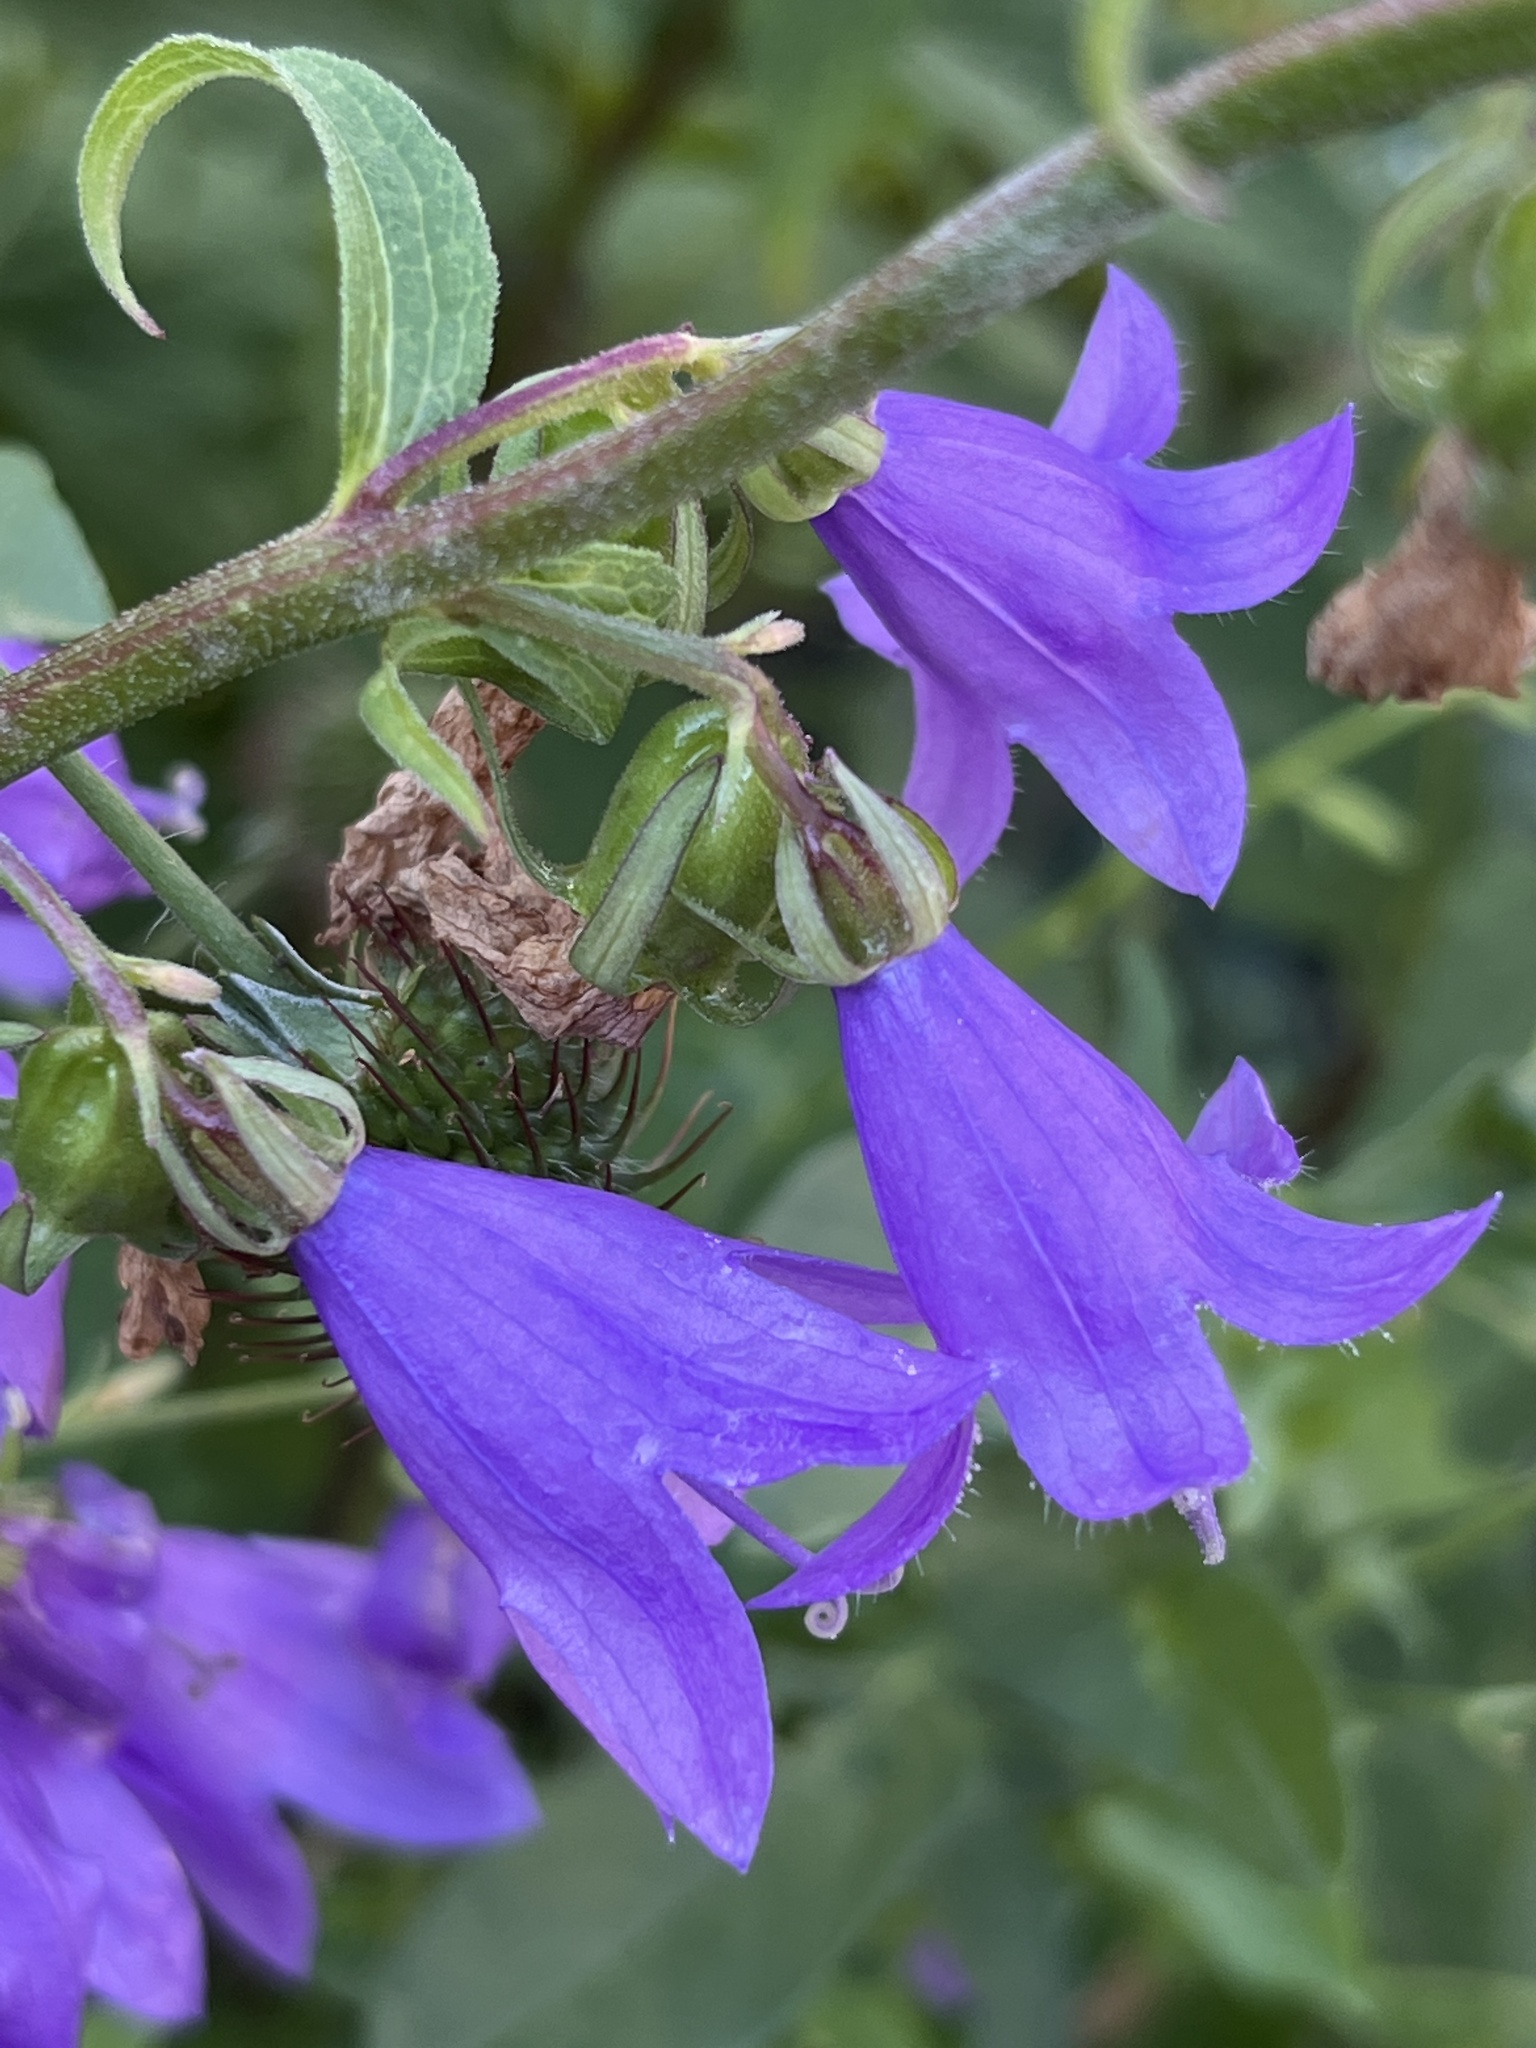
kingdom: Plantae
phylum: Tracheophyta
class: Magnoliopsida
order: Asterales
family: Campanulaceae
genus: Campanula
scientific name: Campanula rapunculoides
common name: Creeping bellflower
